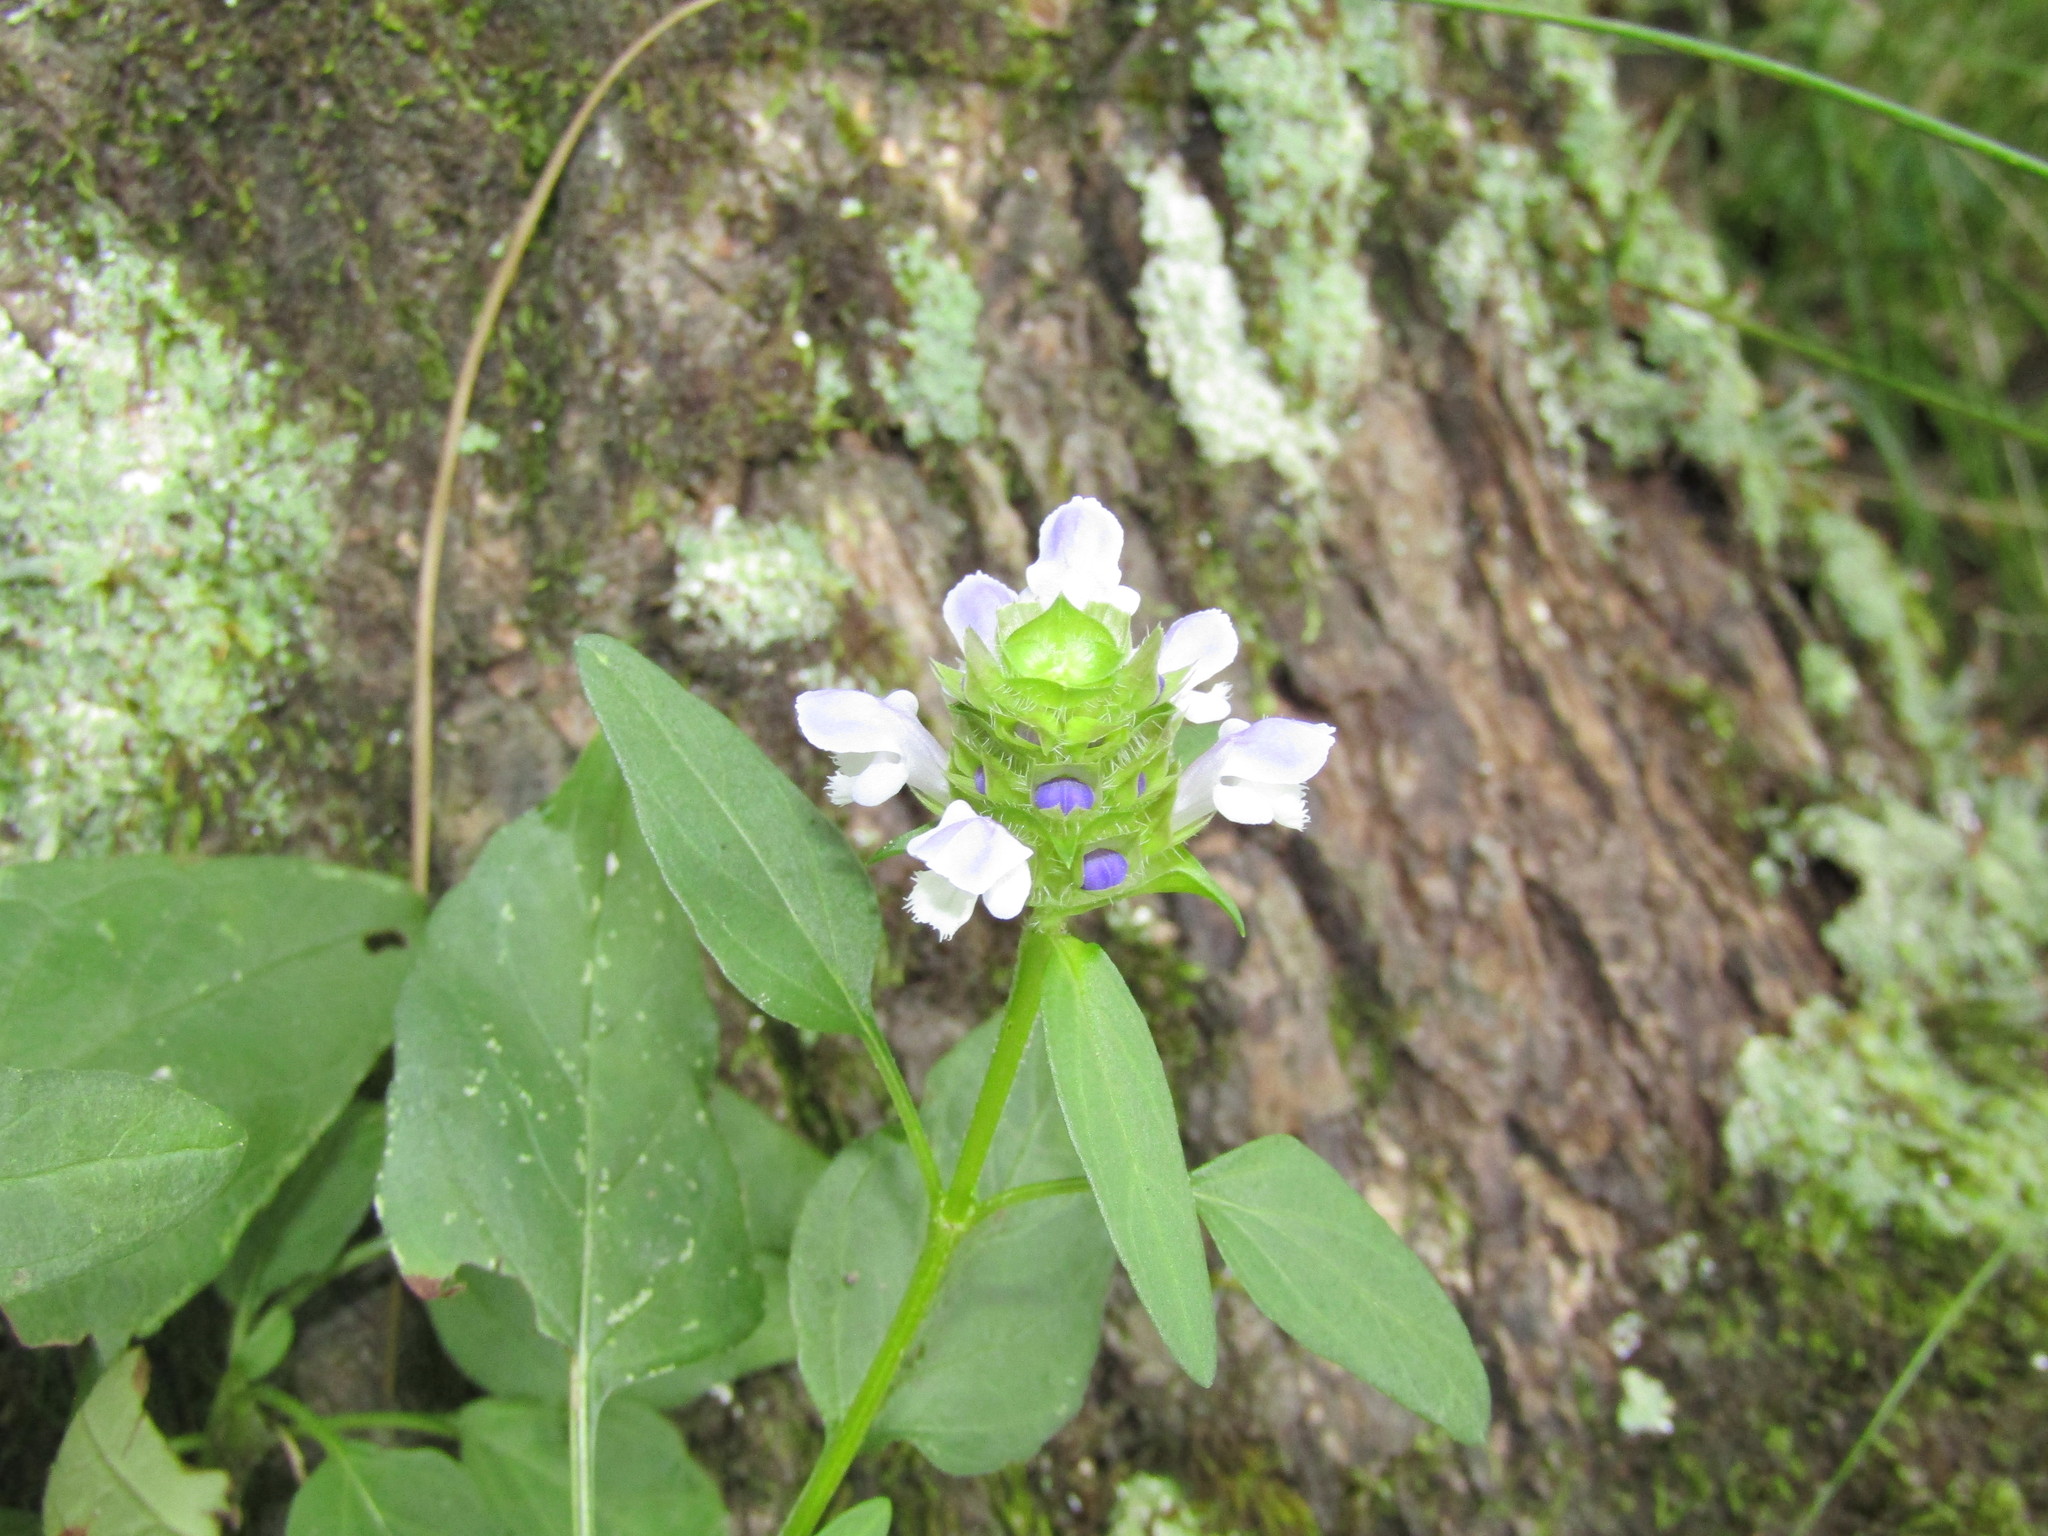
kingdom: Plantae
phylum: Tracheophyta
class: Magnoliopsida
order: Lamiales
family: Lamiaceae
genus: Prunella
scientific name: Prunella vulgaris
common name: Heal-all
